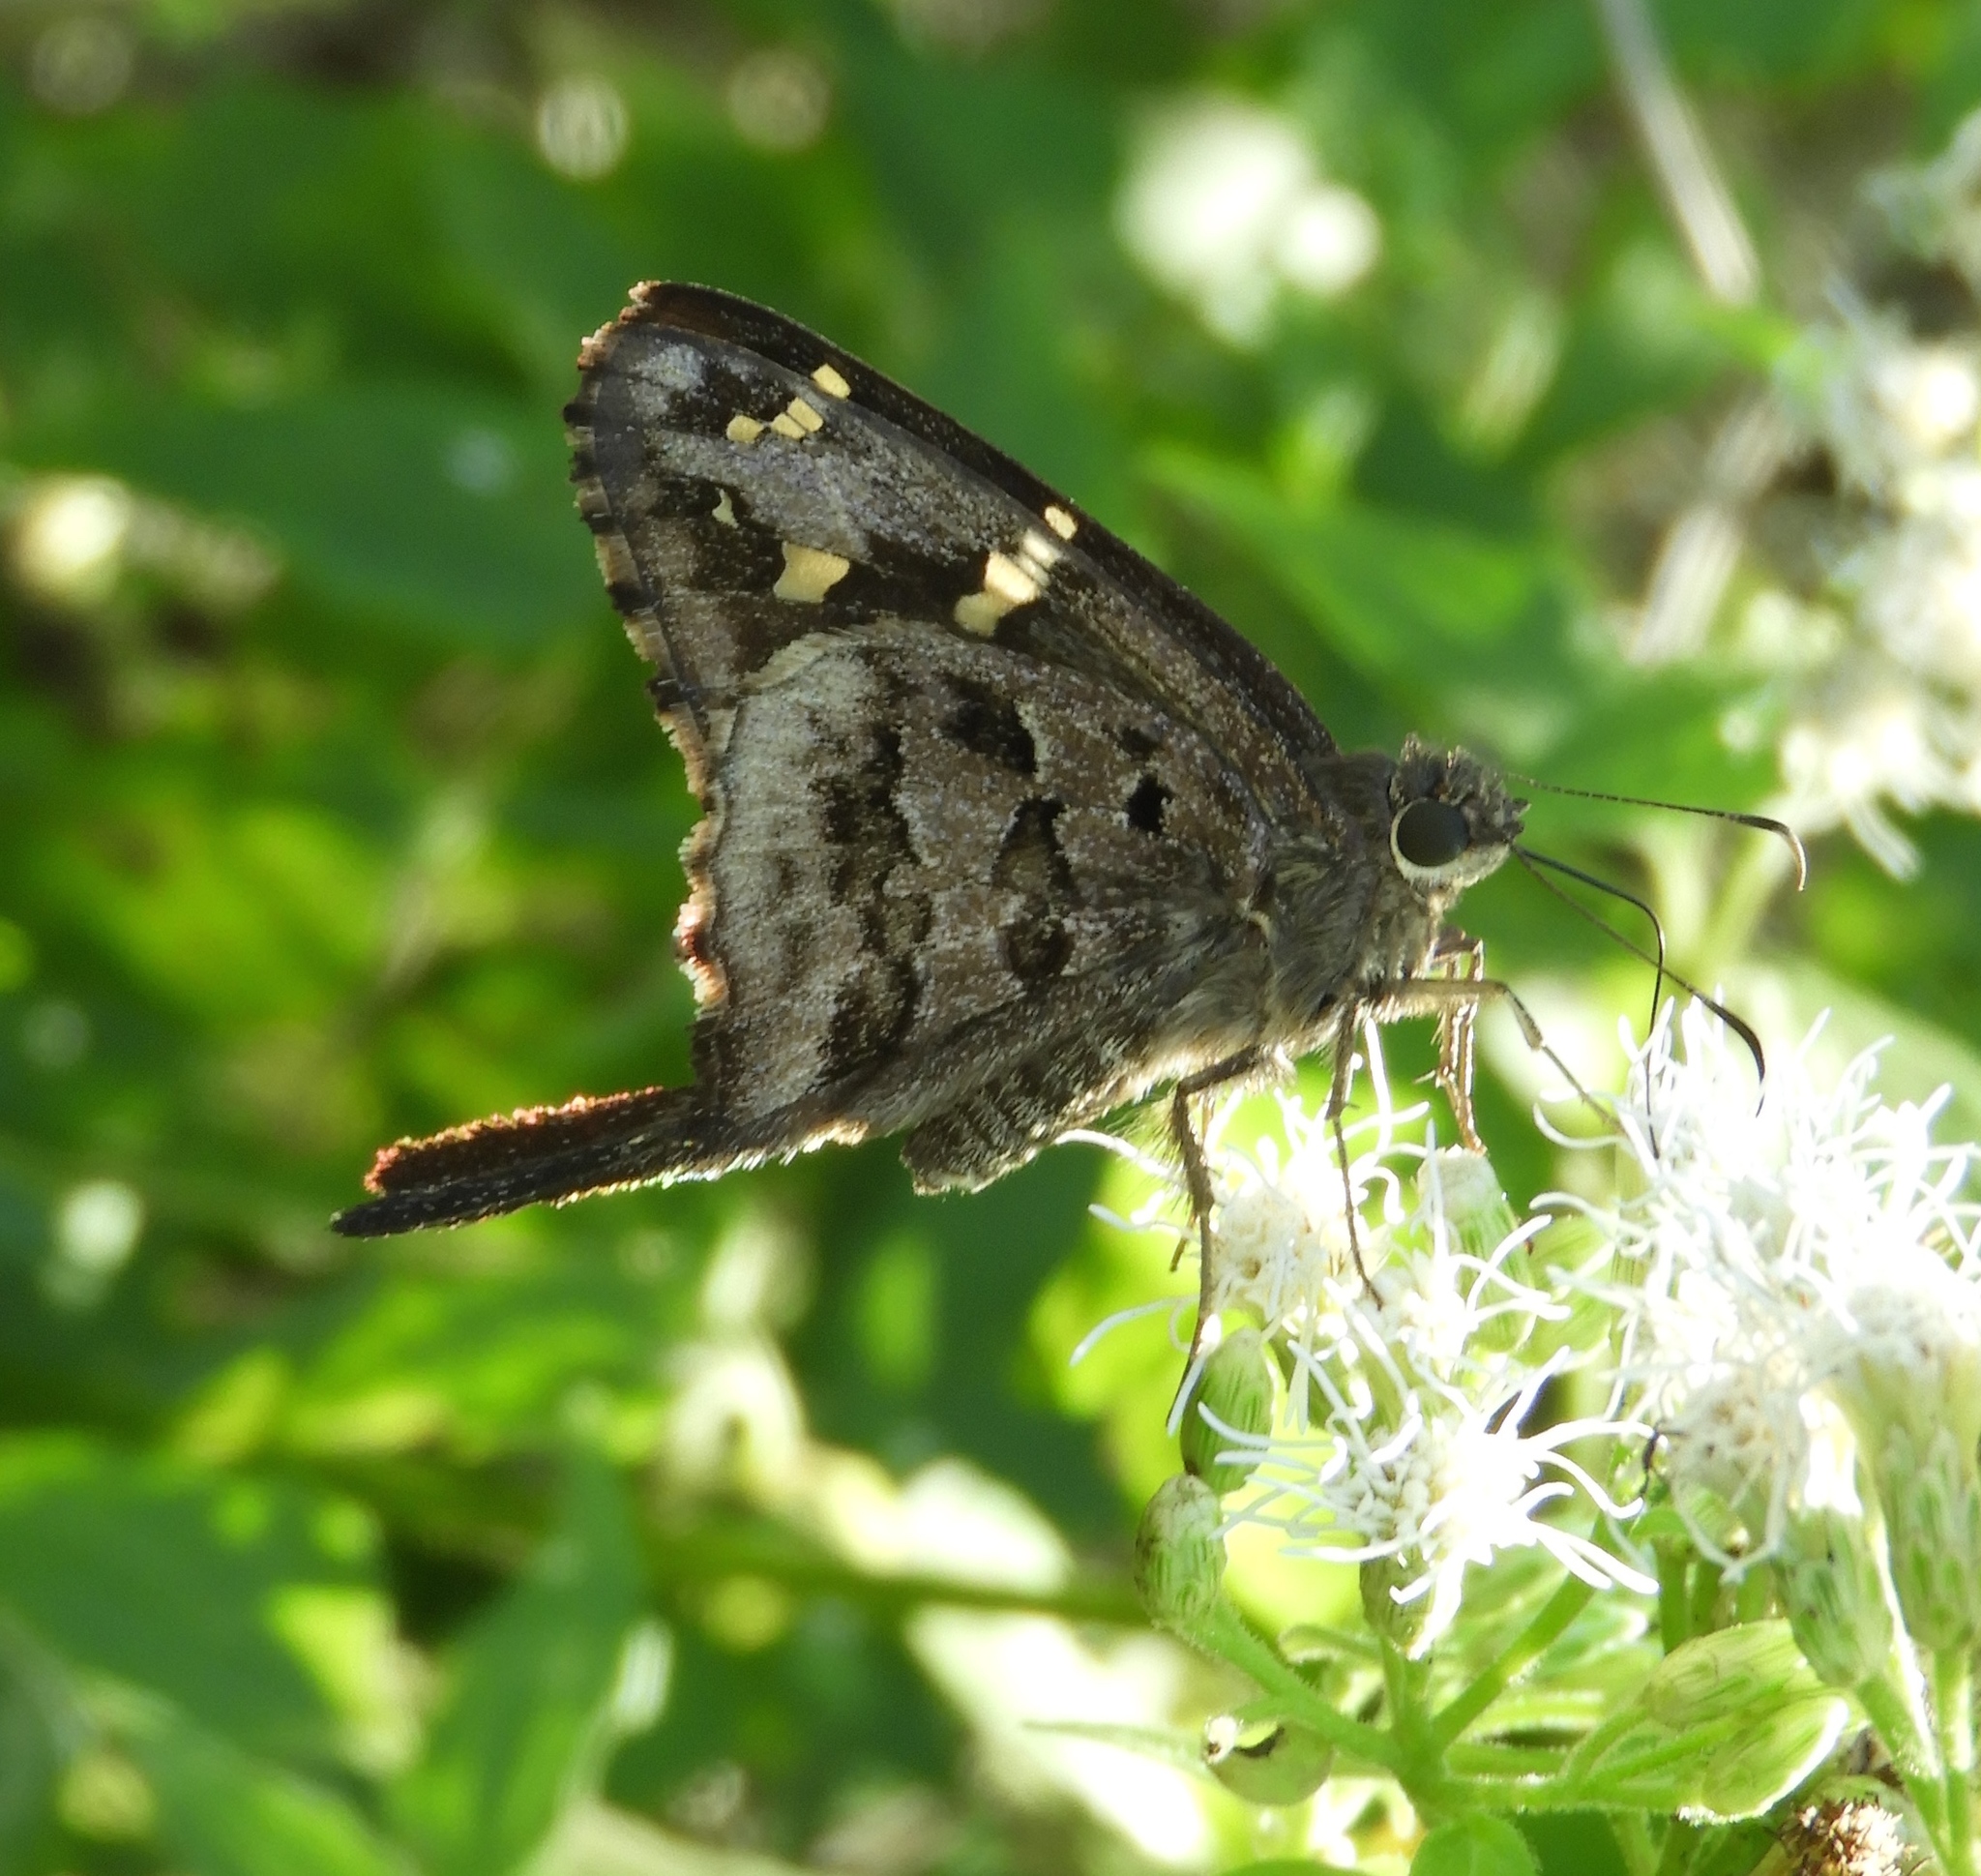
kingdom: Animalia
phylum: Arthropoda
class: Insecta
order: Lepidoptera
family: Hesperiidae
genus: Thorybes
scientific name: Thorybes
